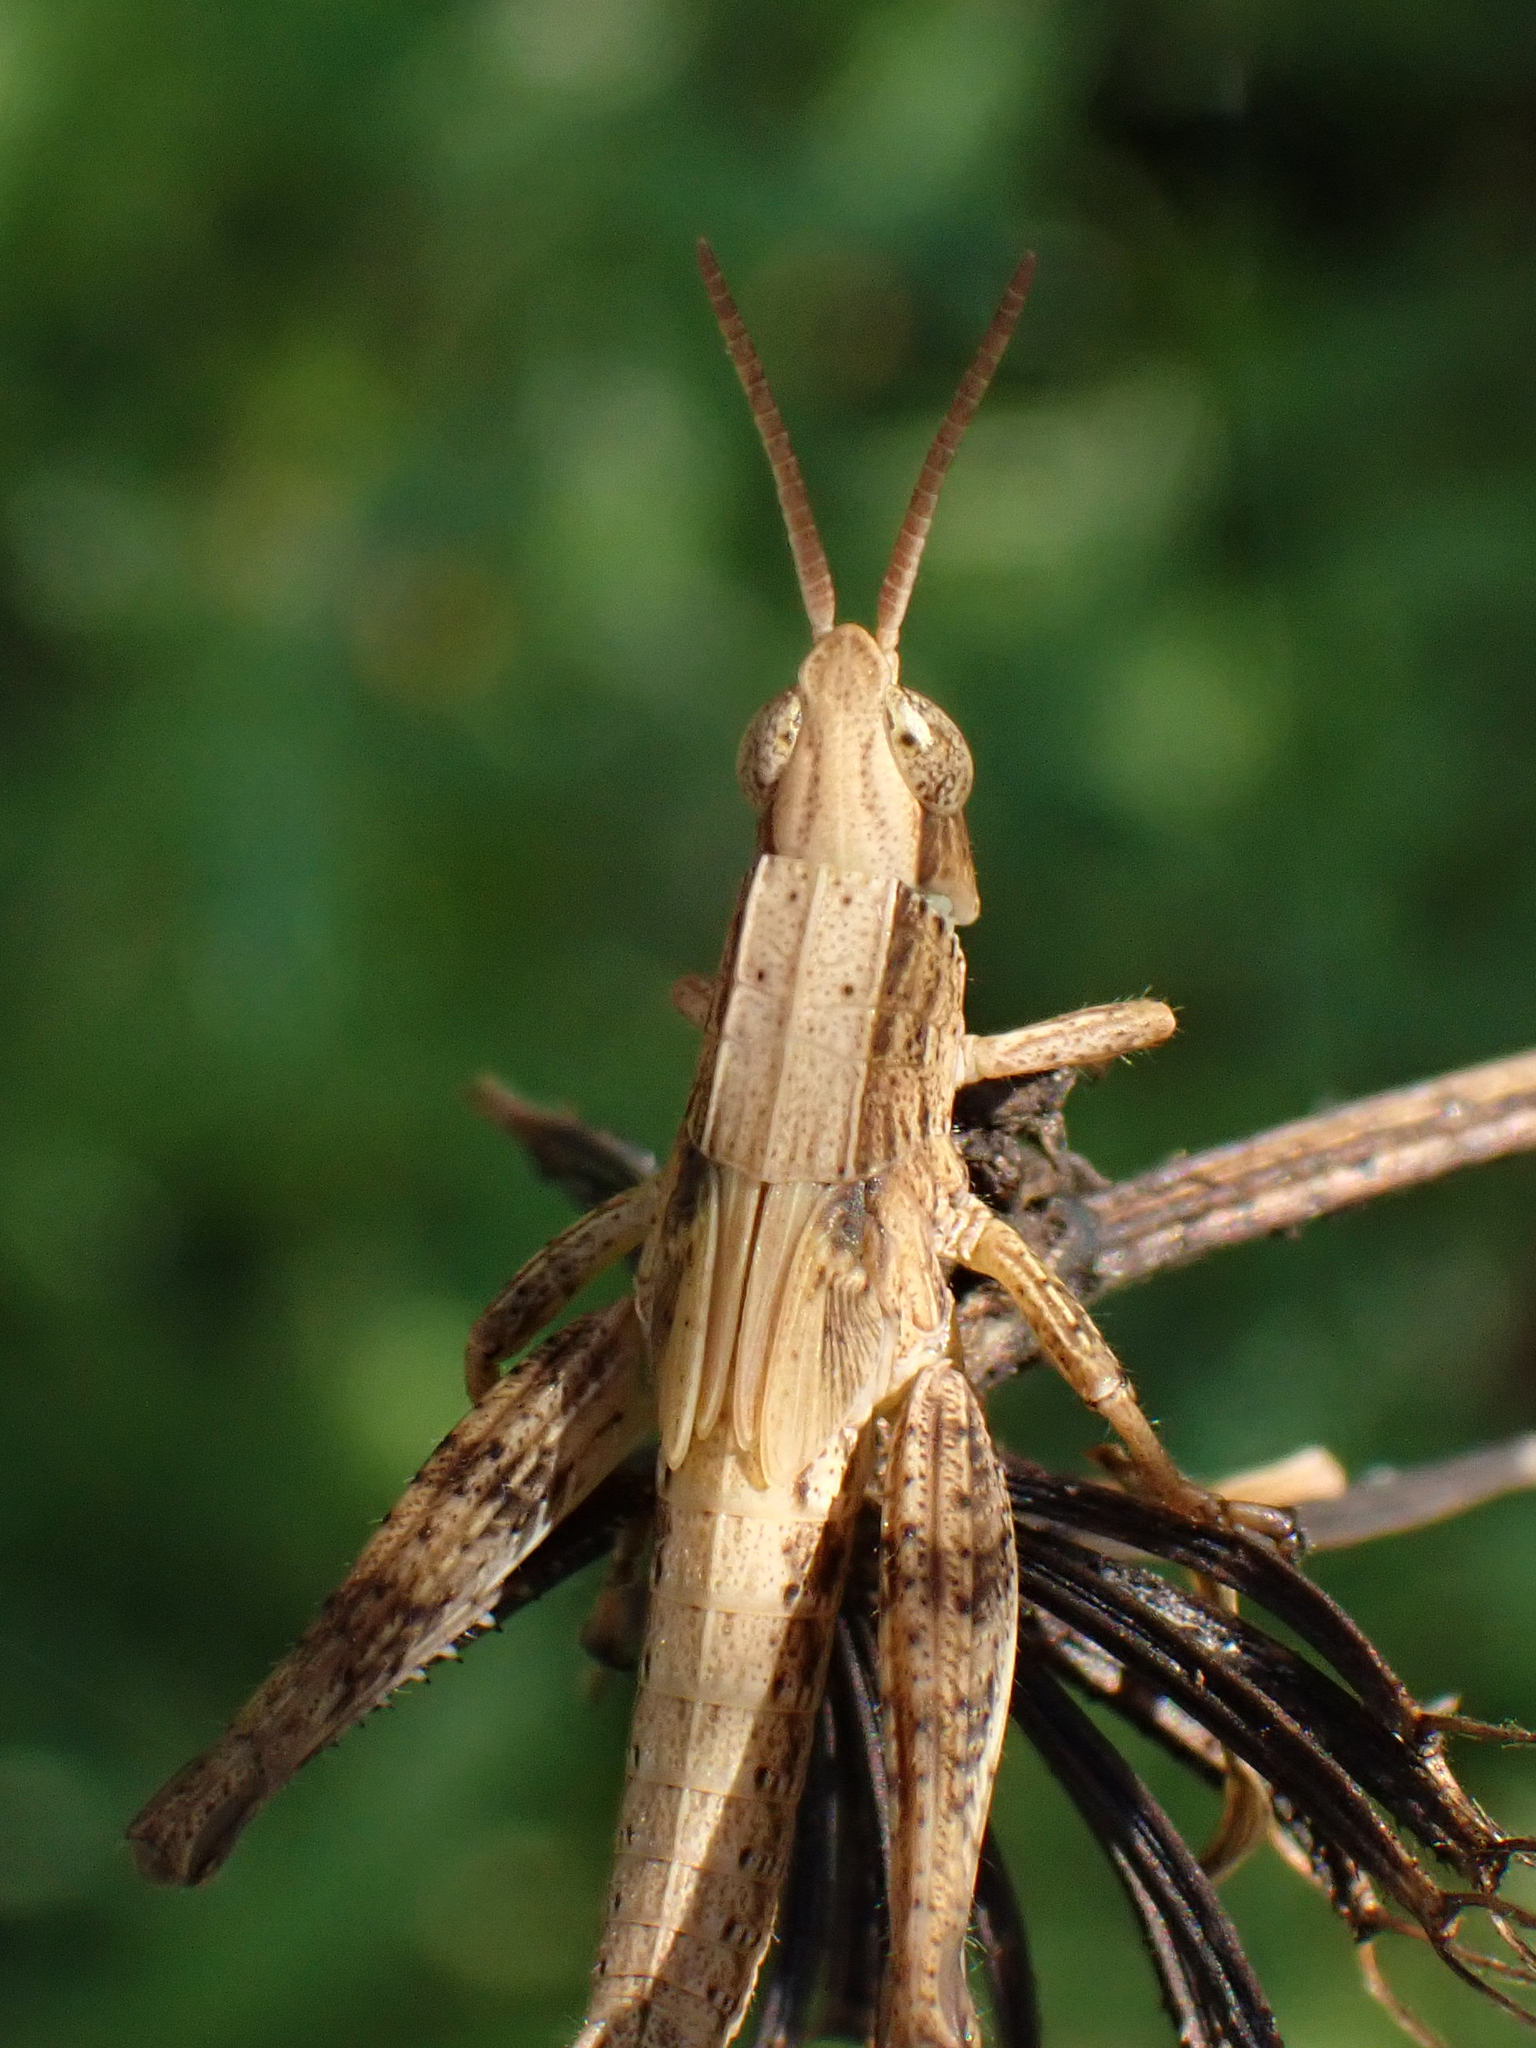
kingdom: Animalia
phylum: Arthropoda
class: Insecta
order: Orthoptera
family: Acrididae
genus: Dichromorpha
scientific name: Dichromorpha viridis
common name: Short-winged green grasshopper
